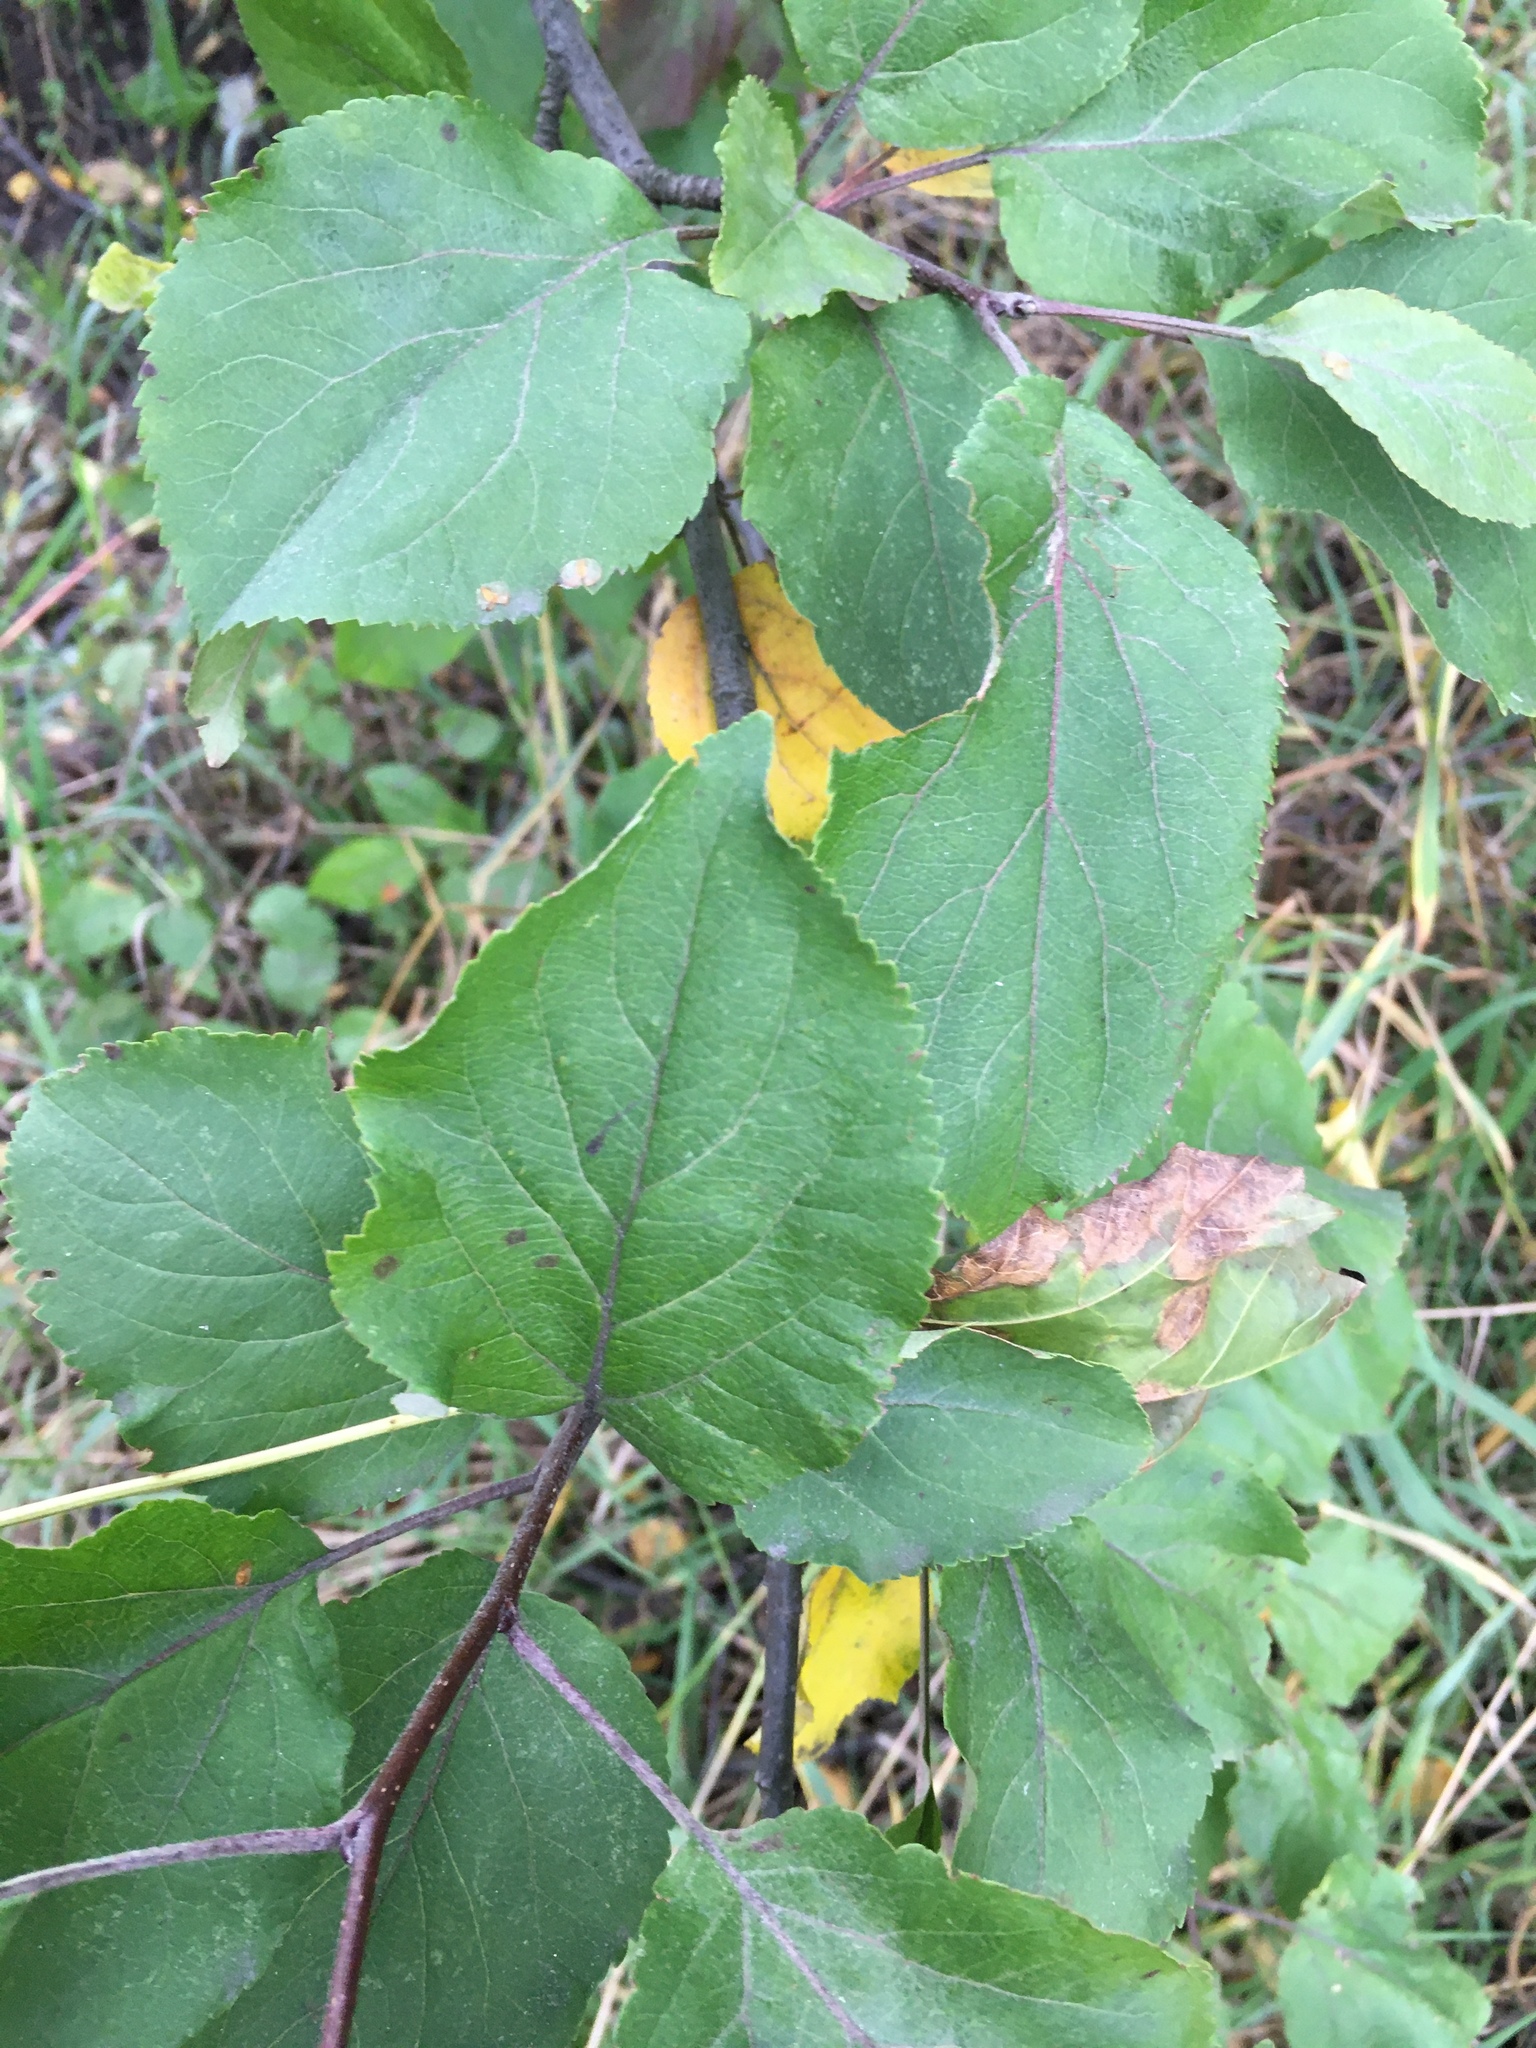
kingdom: Plantae
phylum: Tracheophyta
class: Magnoliopsida
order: Rosales
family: Rosaceae
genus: Malus
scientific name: Malus domestica
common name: Apple
